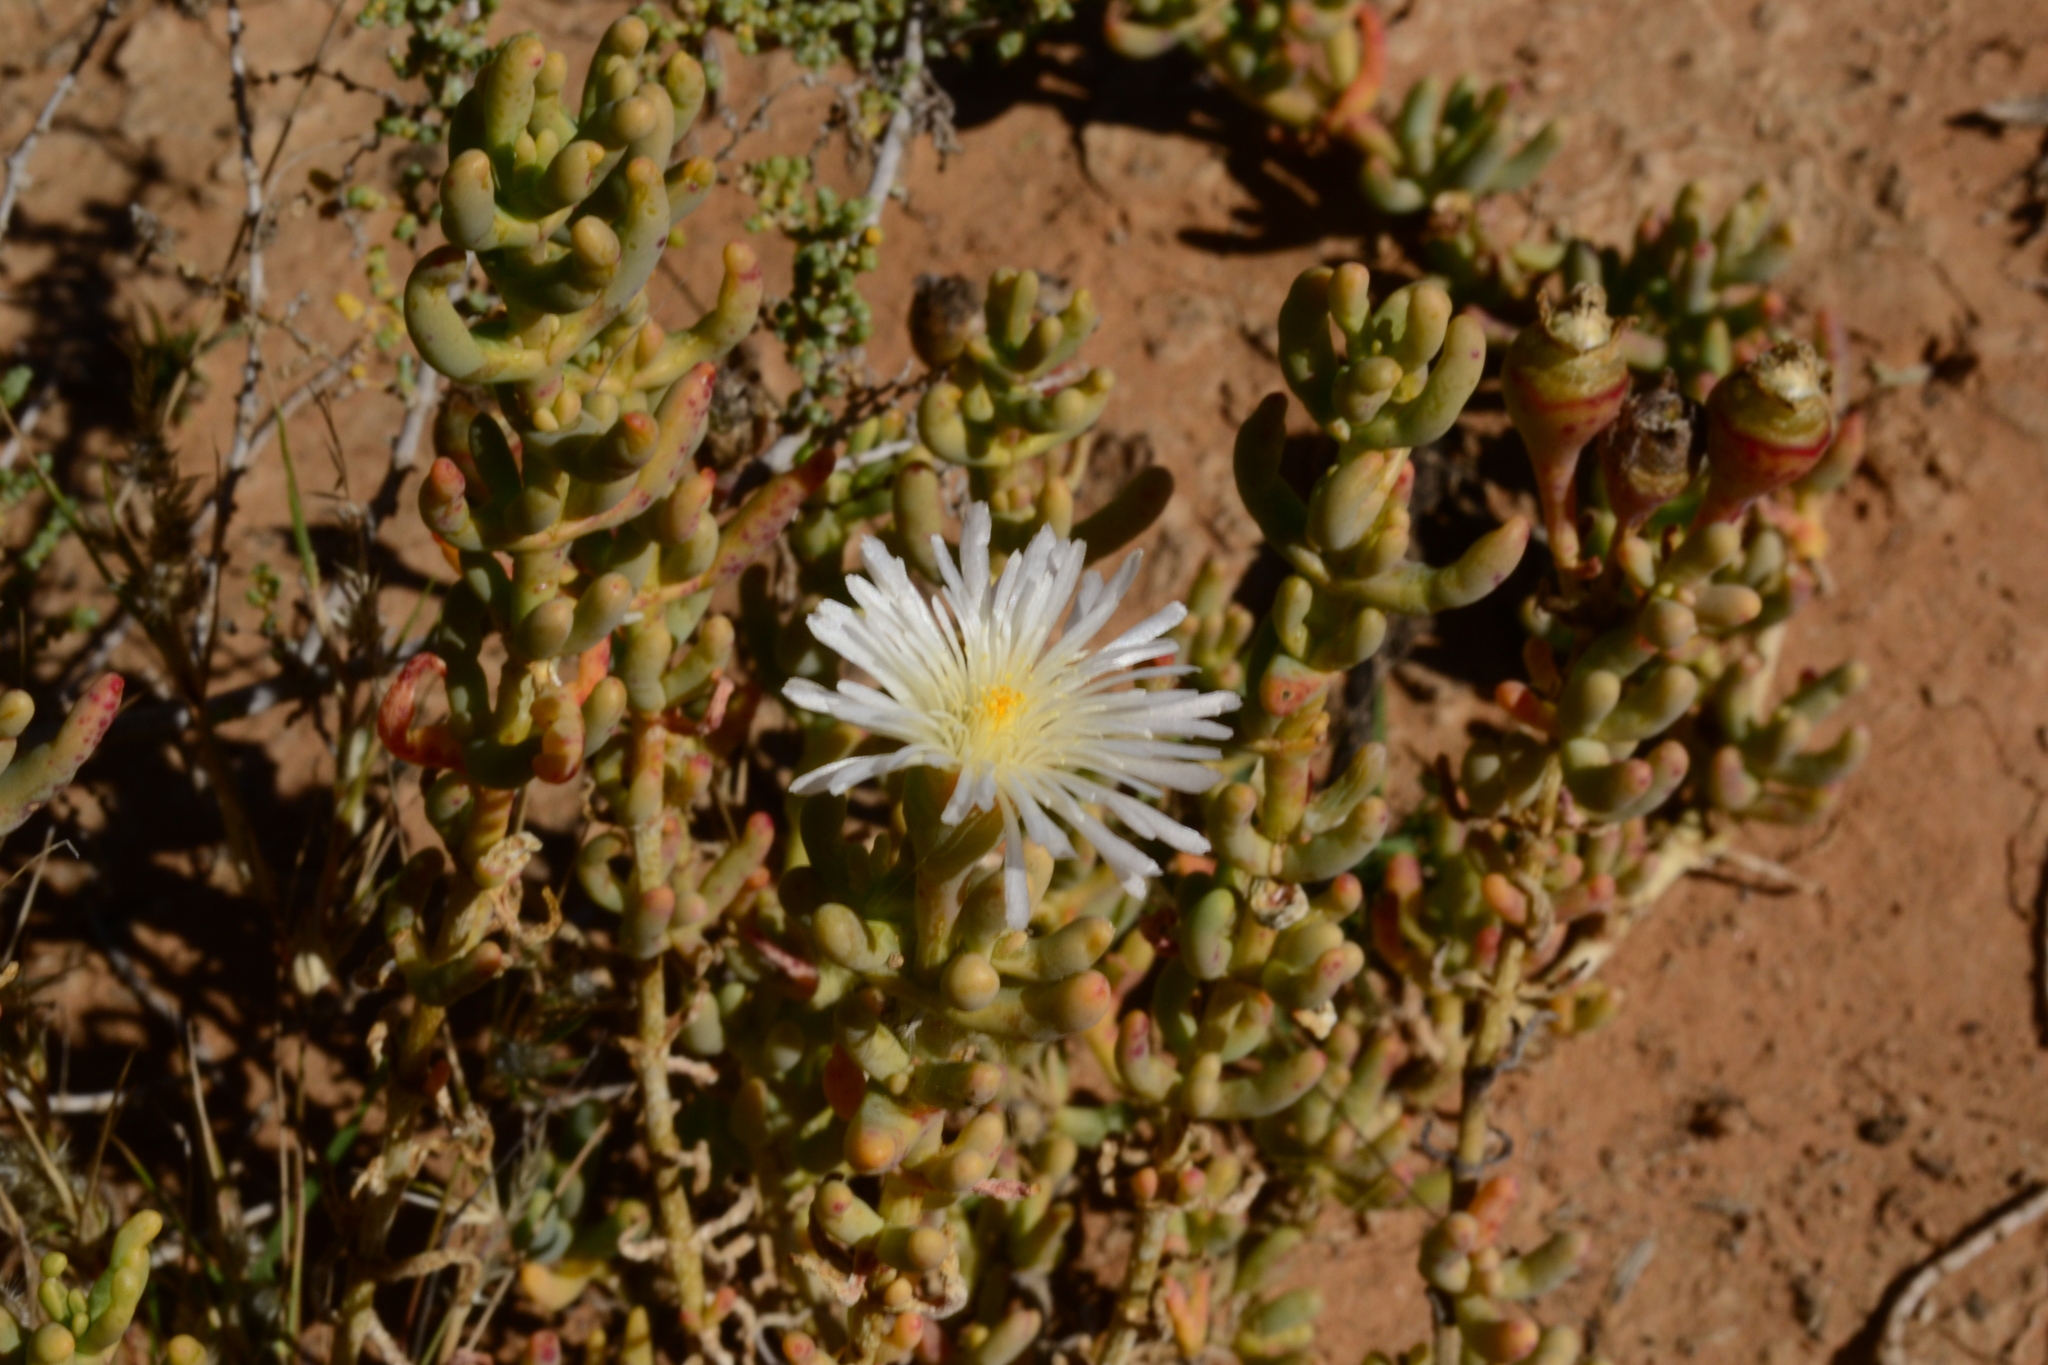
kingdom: Plantae
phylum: Tracheophyta
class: Magnoliopsida
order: Caryophyllales
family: Aizoaceae
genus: Mesembryanthemum
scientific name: Mesembryanthemum tetragonum
